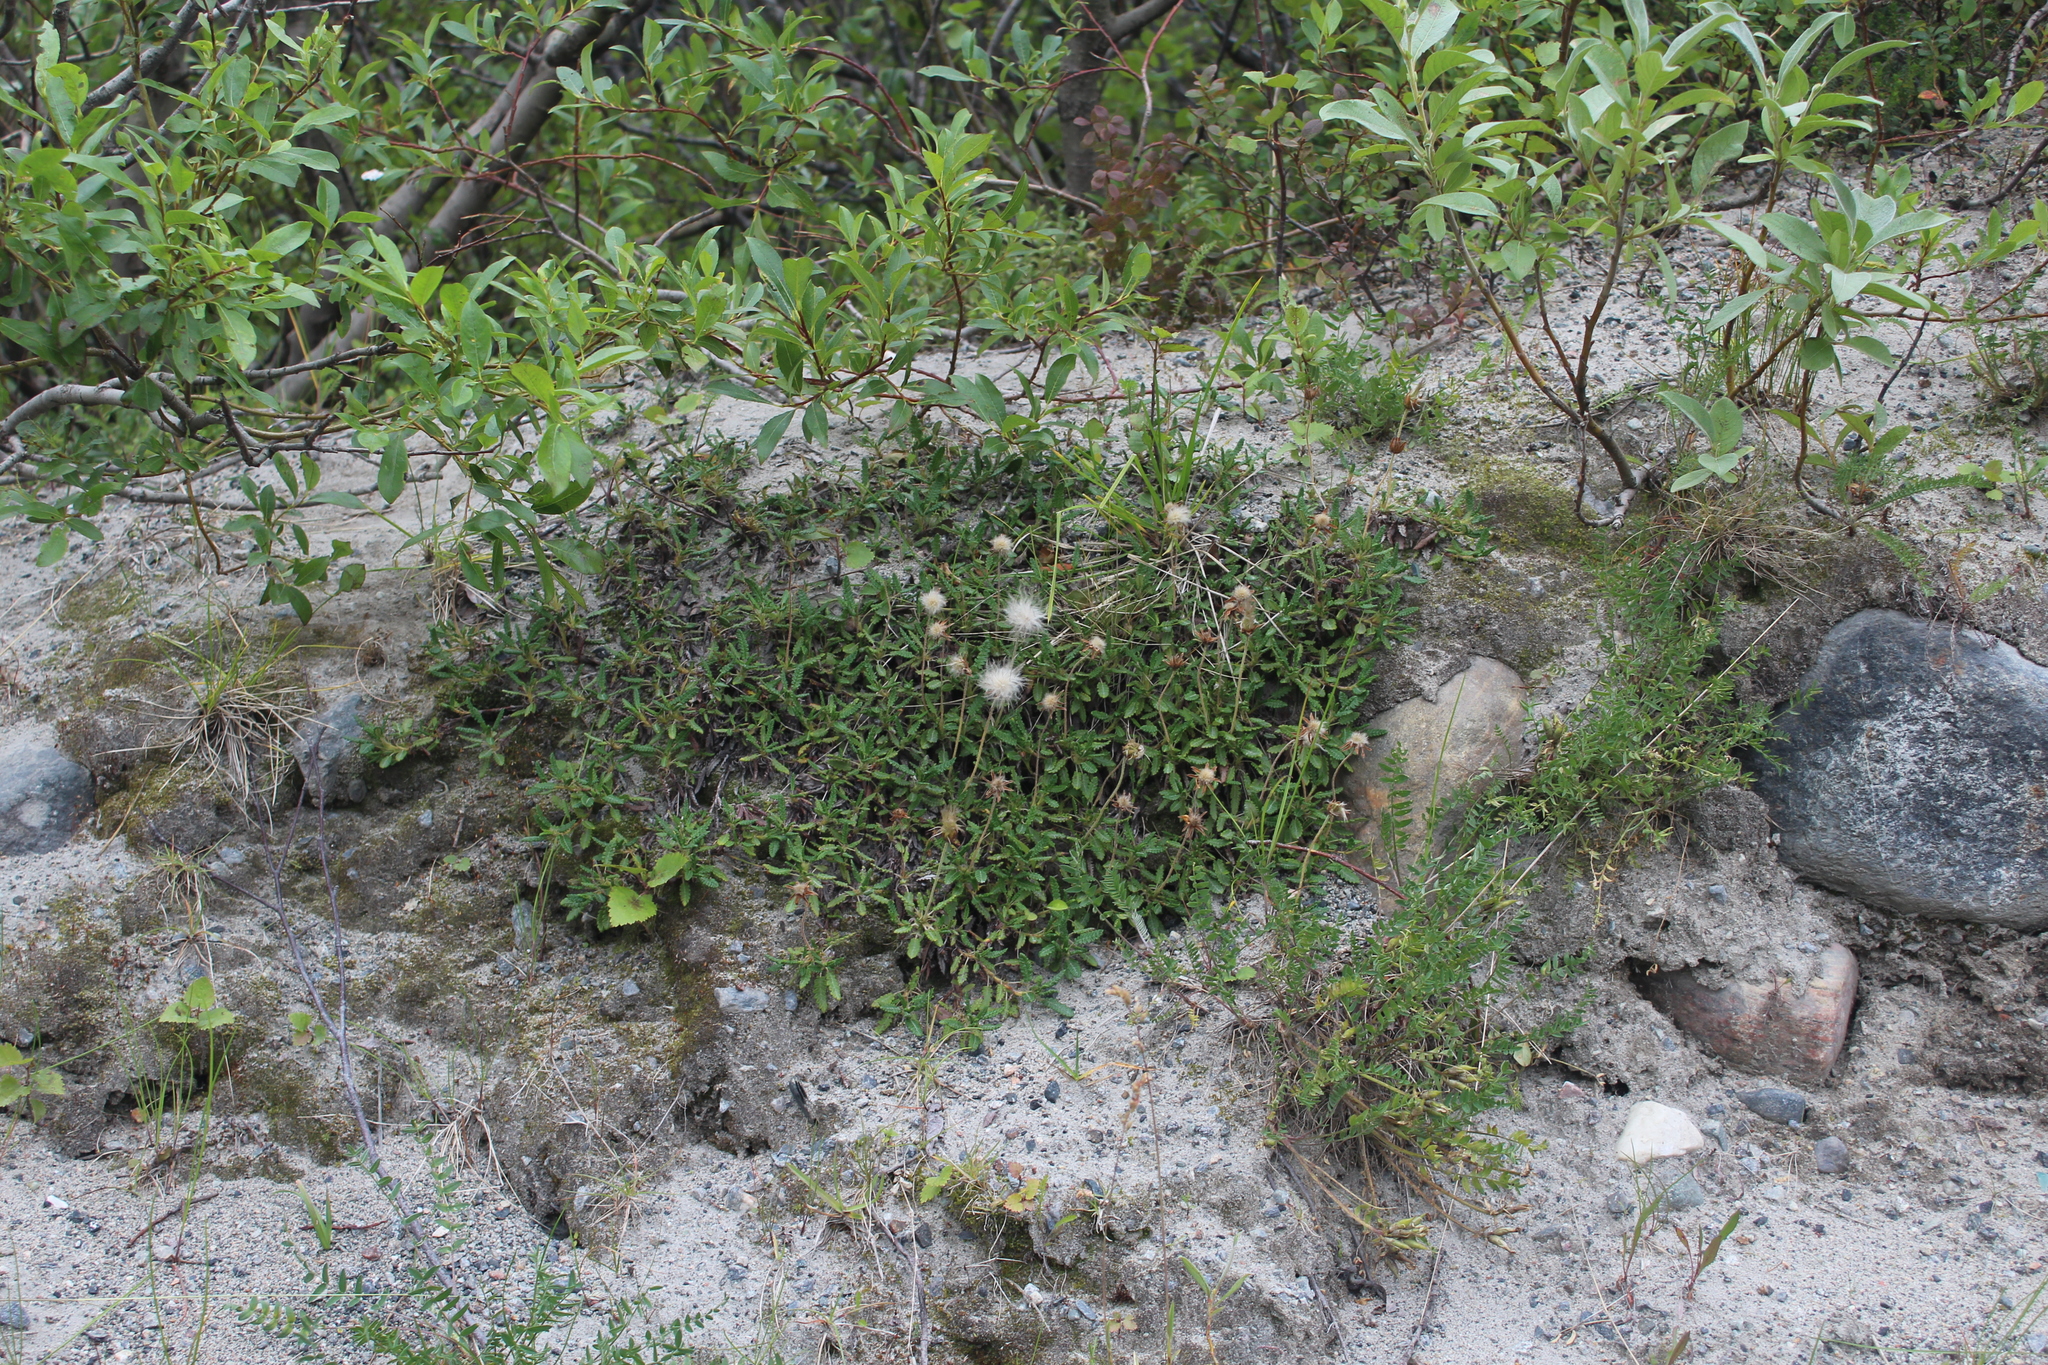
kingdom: Plantae
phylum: Tracheophyta
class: Magnoliopsida
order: Rosales
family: Rosaceae
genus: Dryas
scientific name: Dryas octopetala
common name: Eight-petal mountain-avens
